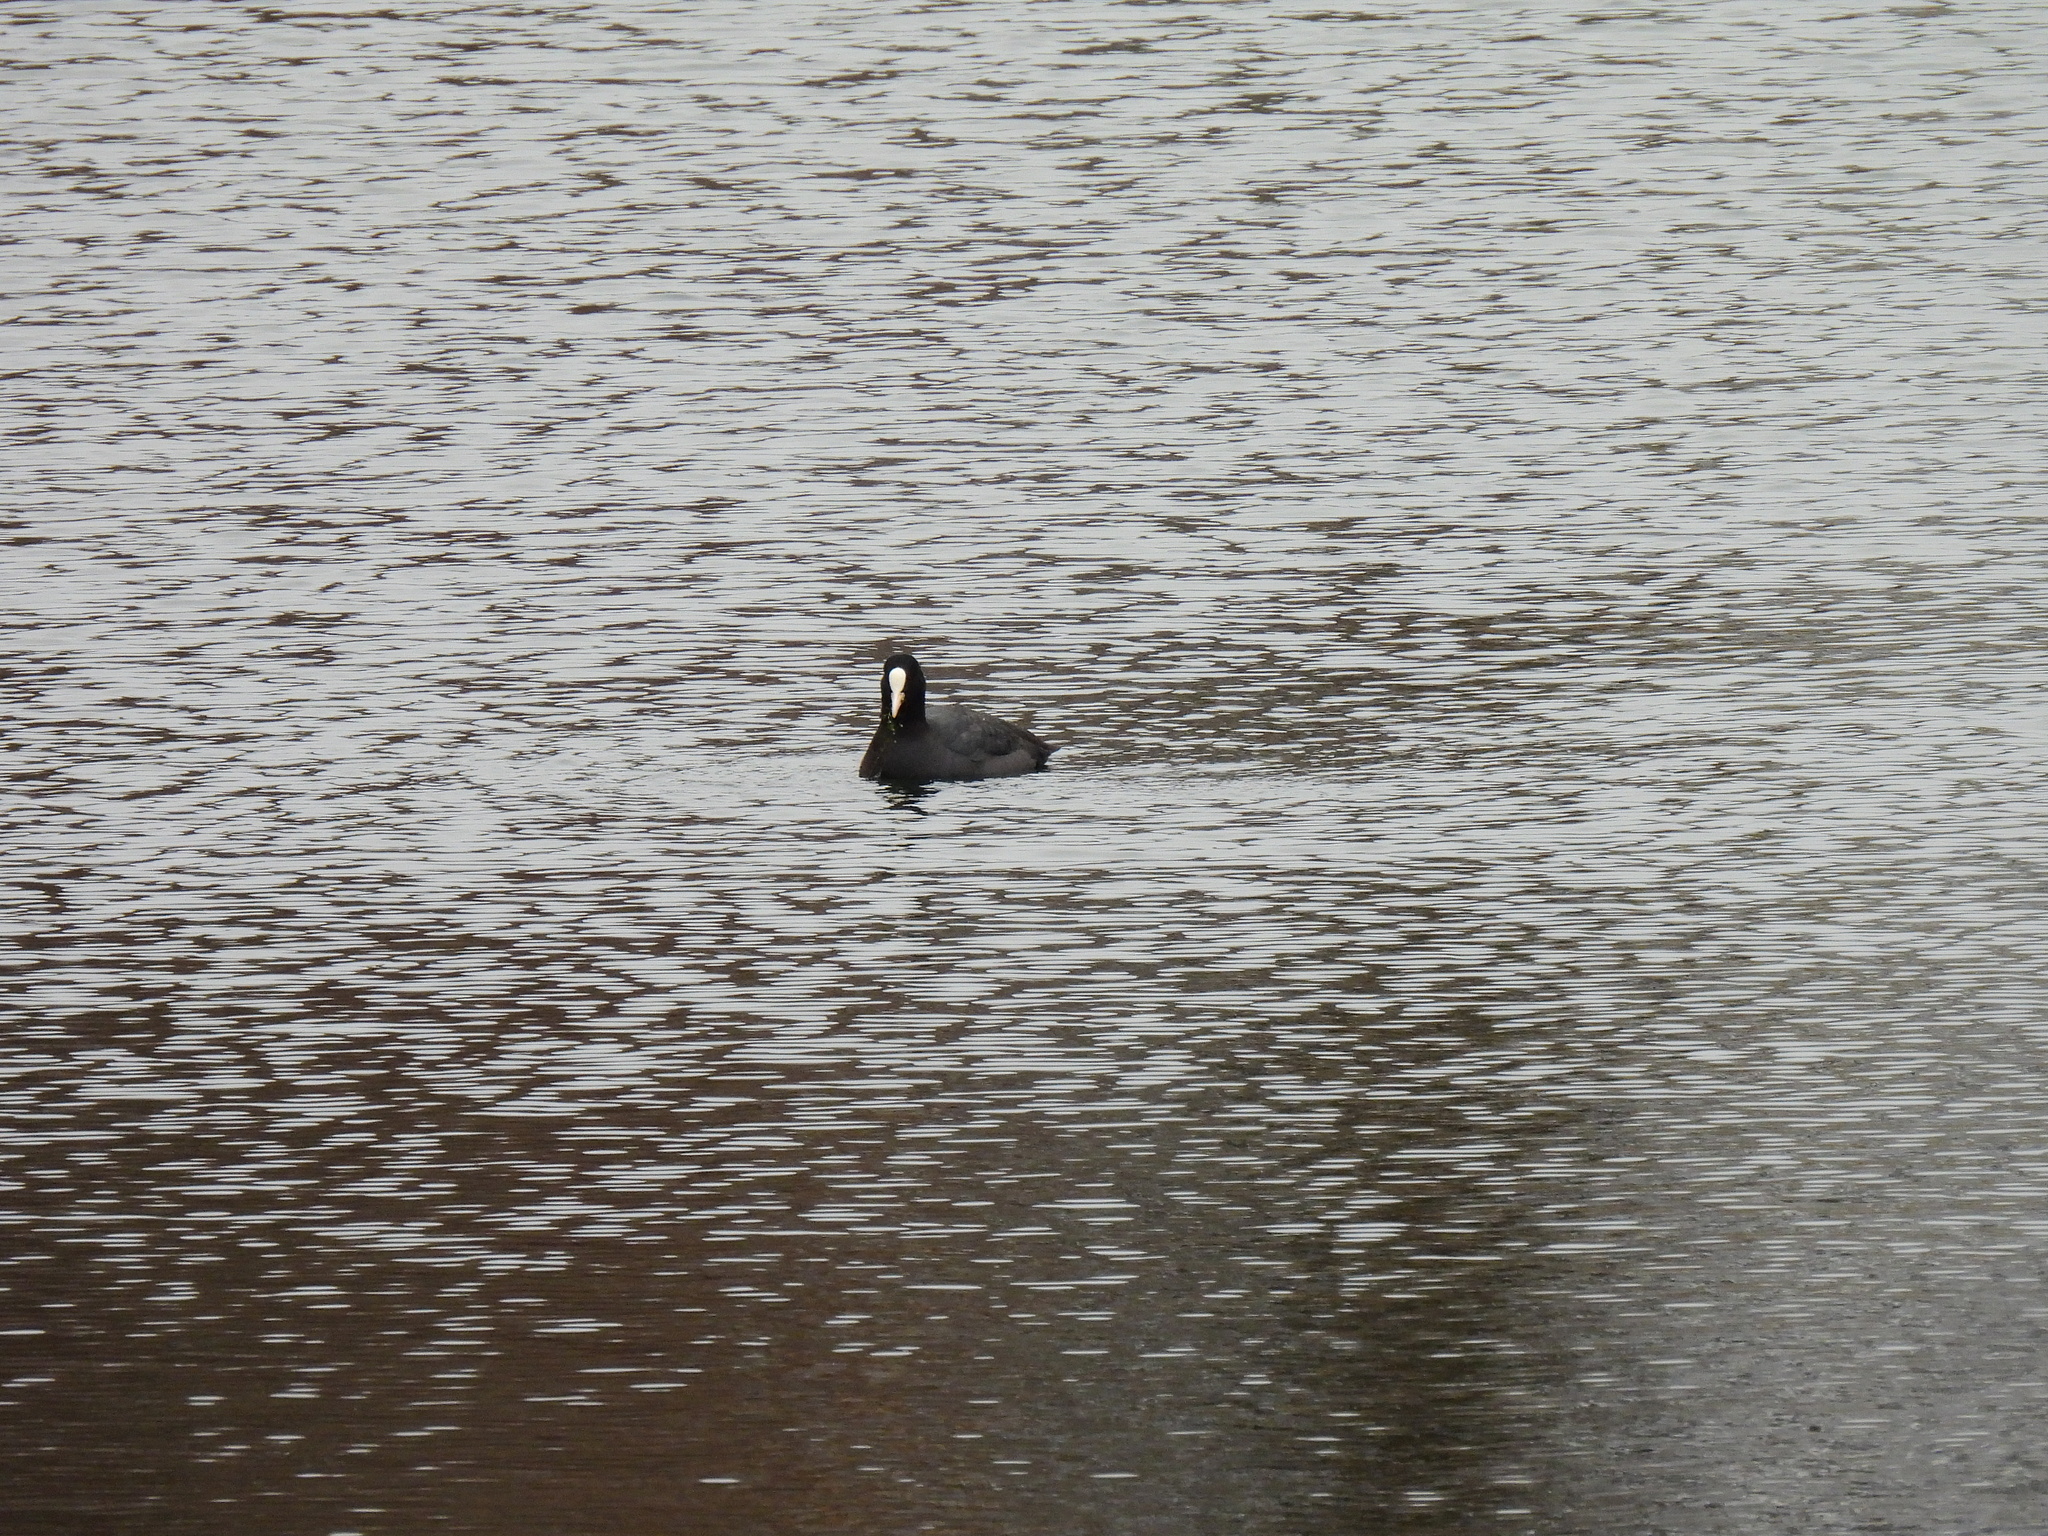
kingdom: Animalia
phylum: Chordata
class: Aves
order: Gruiformes
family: Rallidae
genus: Fulica
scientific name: Fulica atra
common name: Eurasian coot
